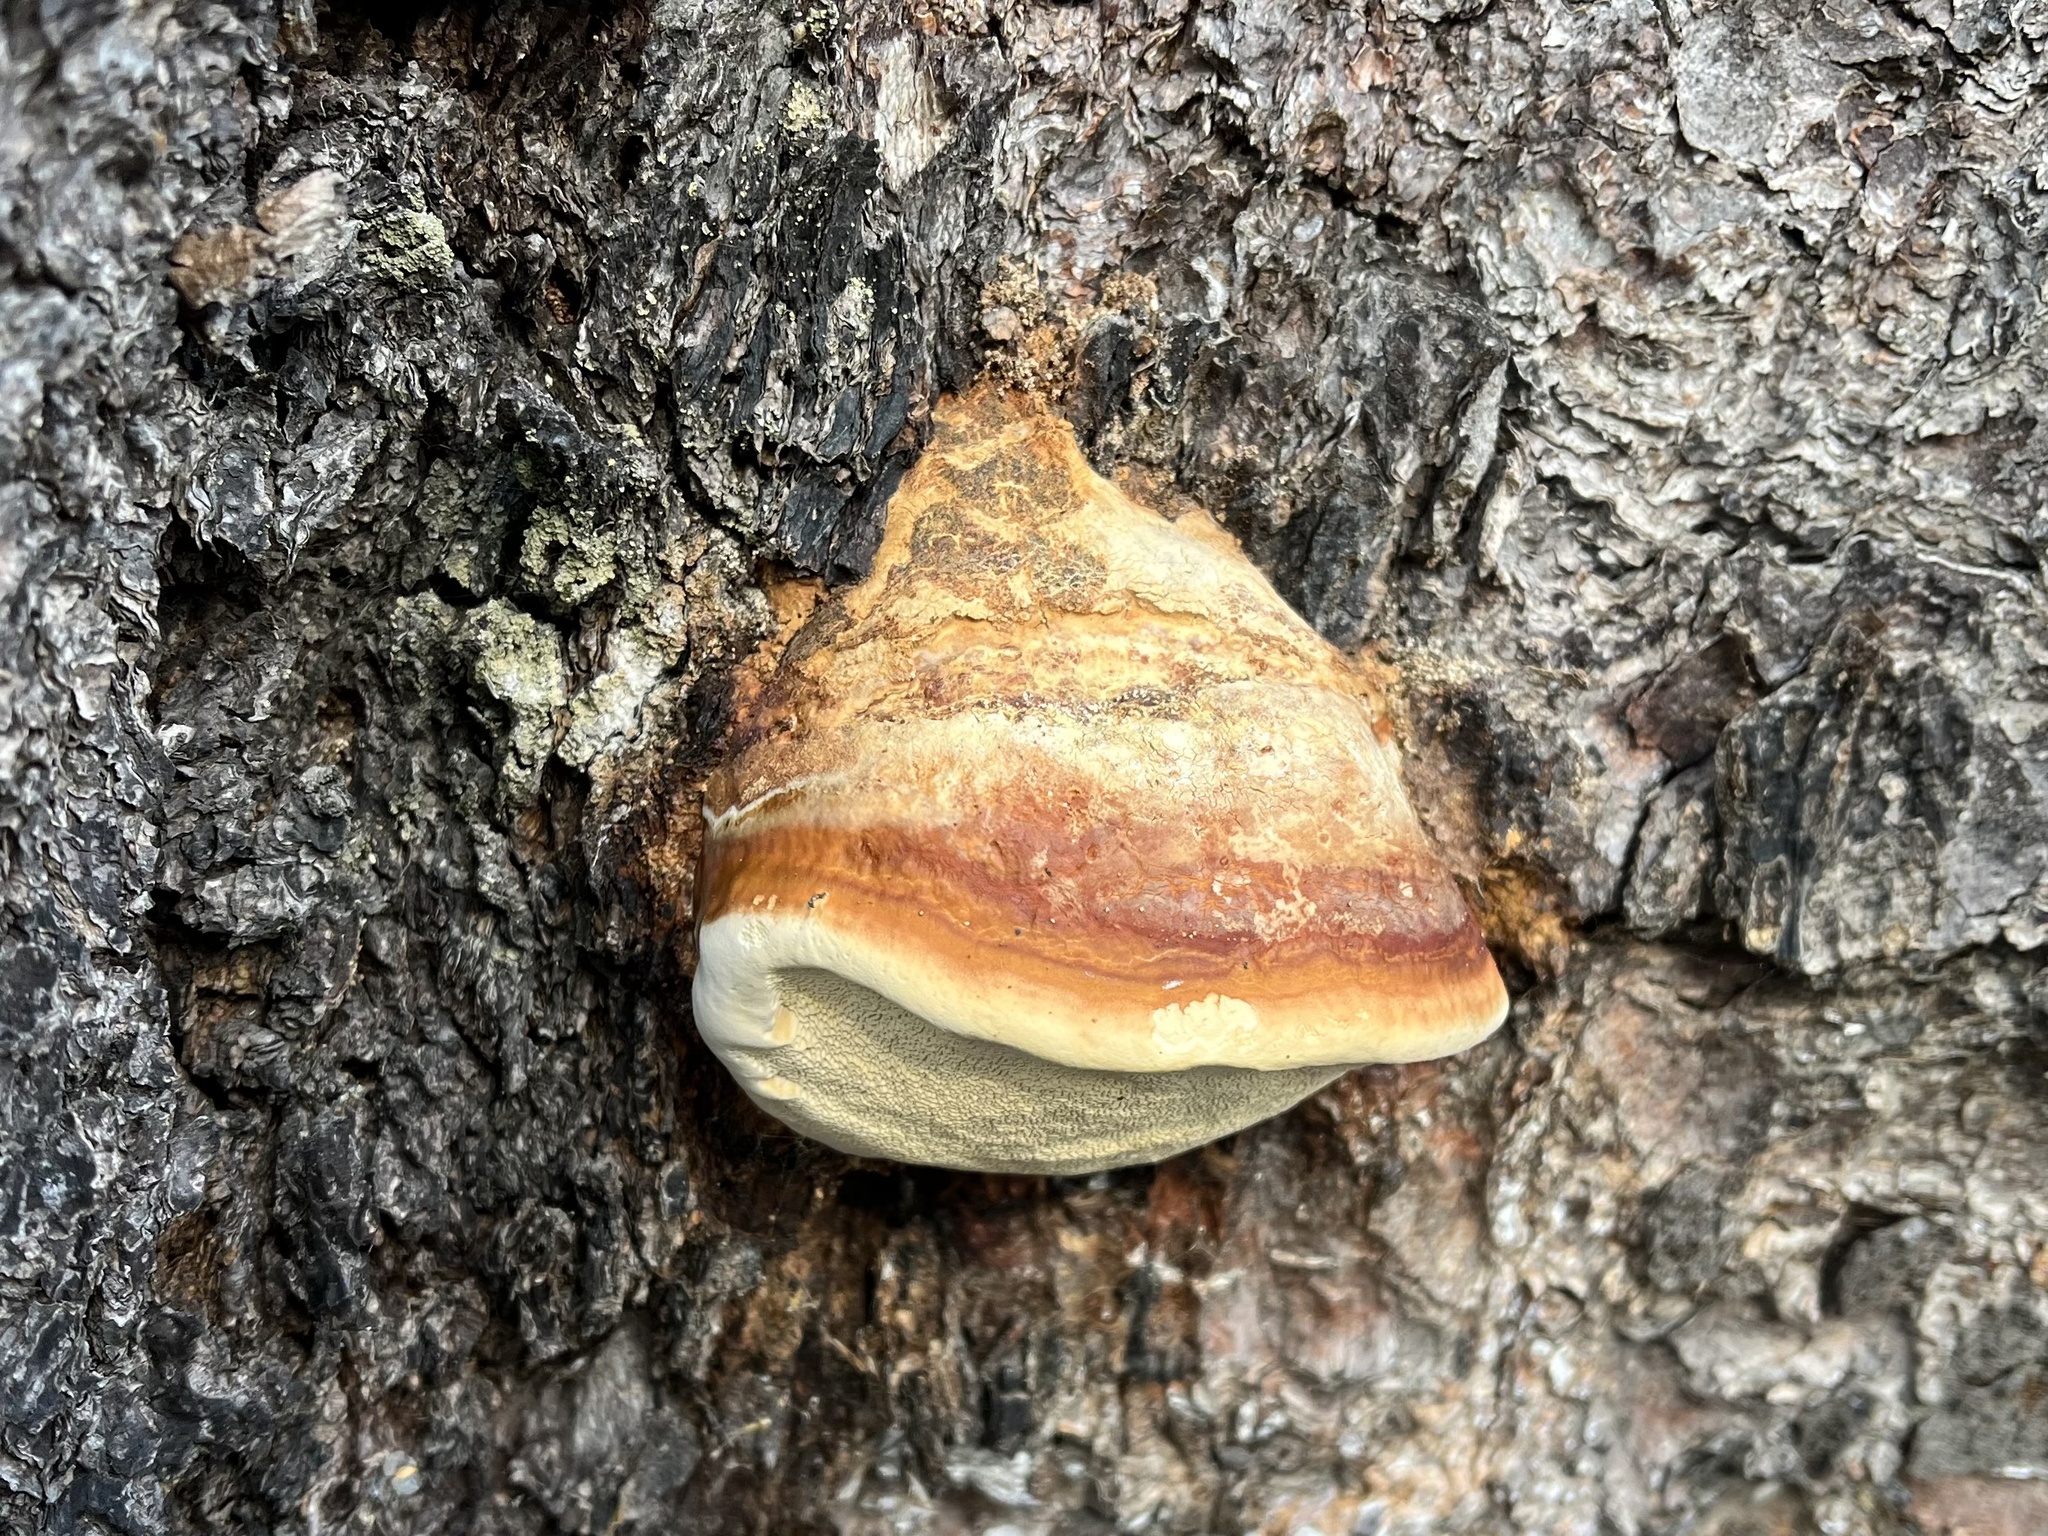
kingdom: Fungi
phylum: Basidiomycota
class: Agaricomycetes
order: Polyporales
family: Fomitopsidaceae
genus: Fomitopsis
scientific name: Fomitopsis pinicola
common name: Red-belted bracket
